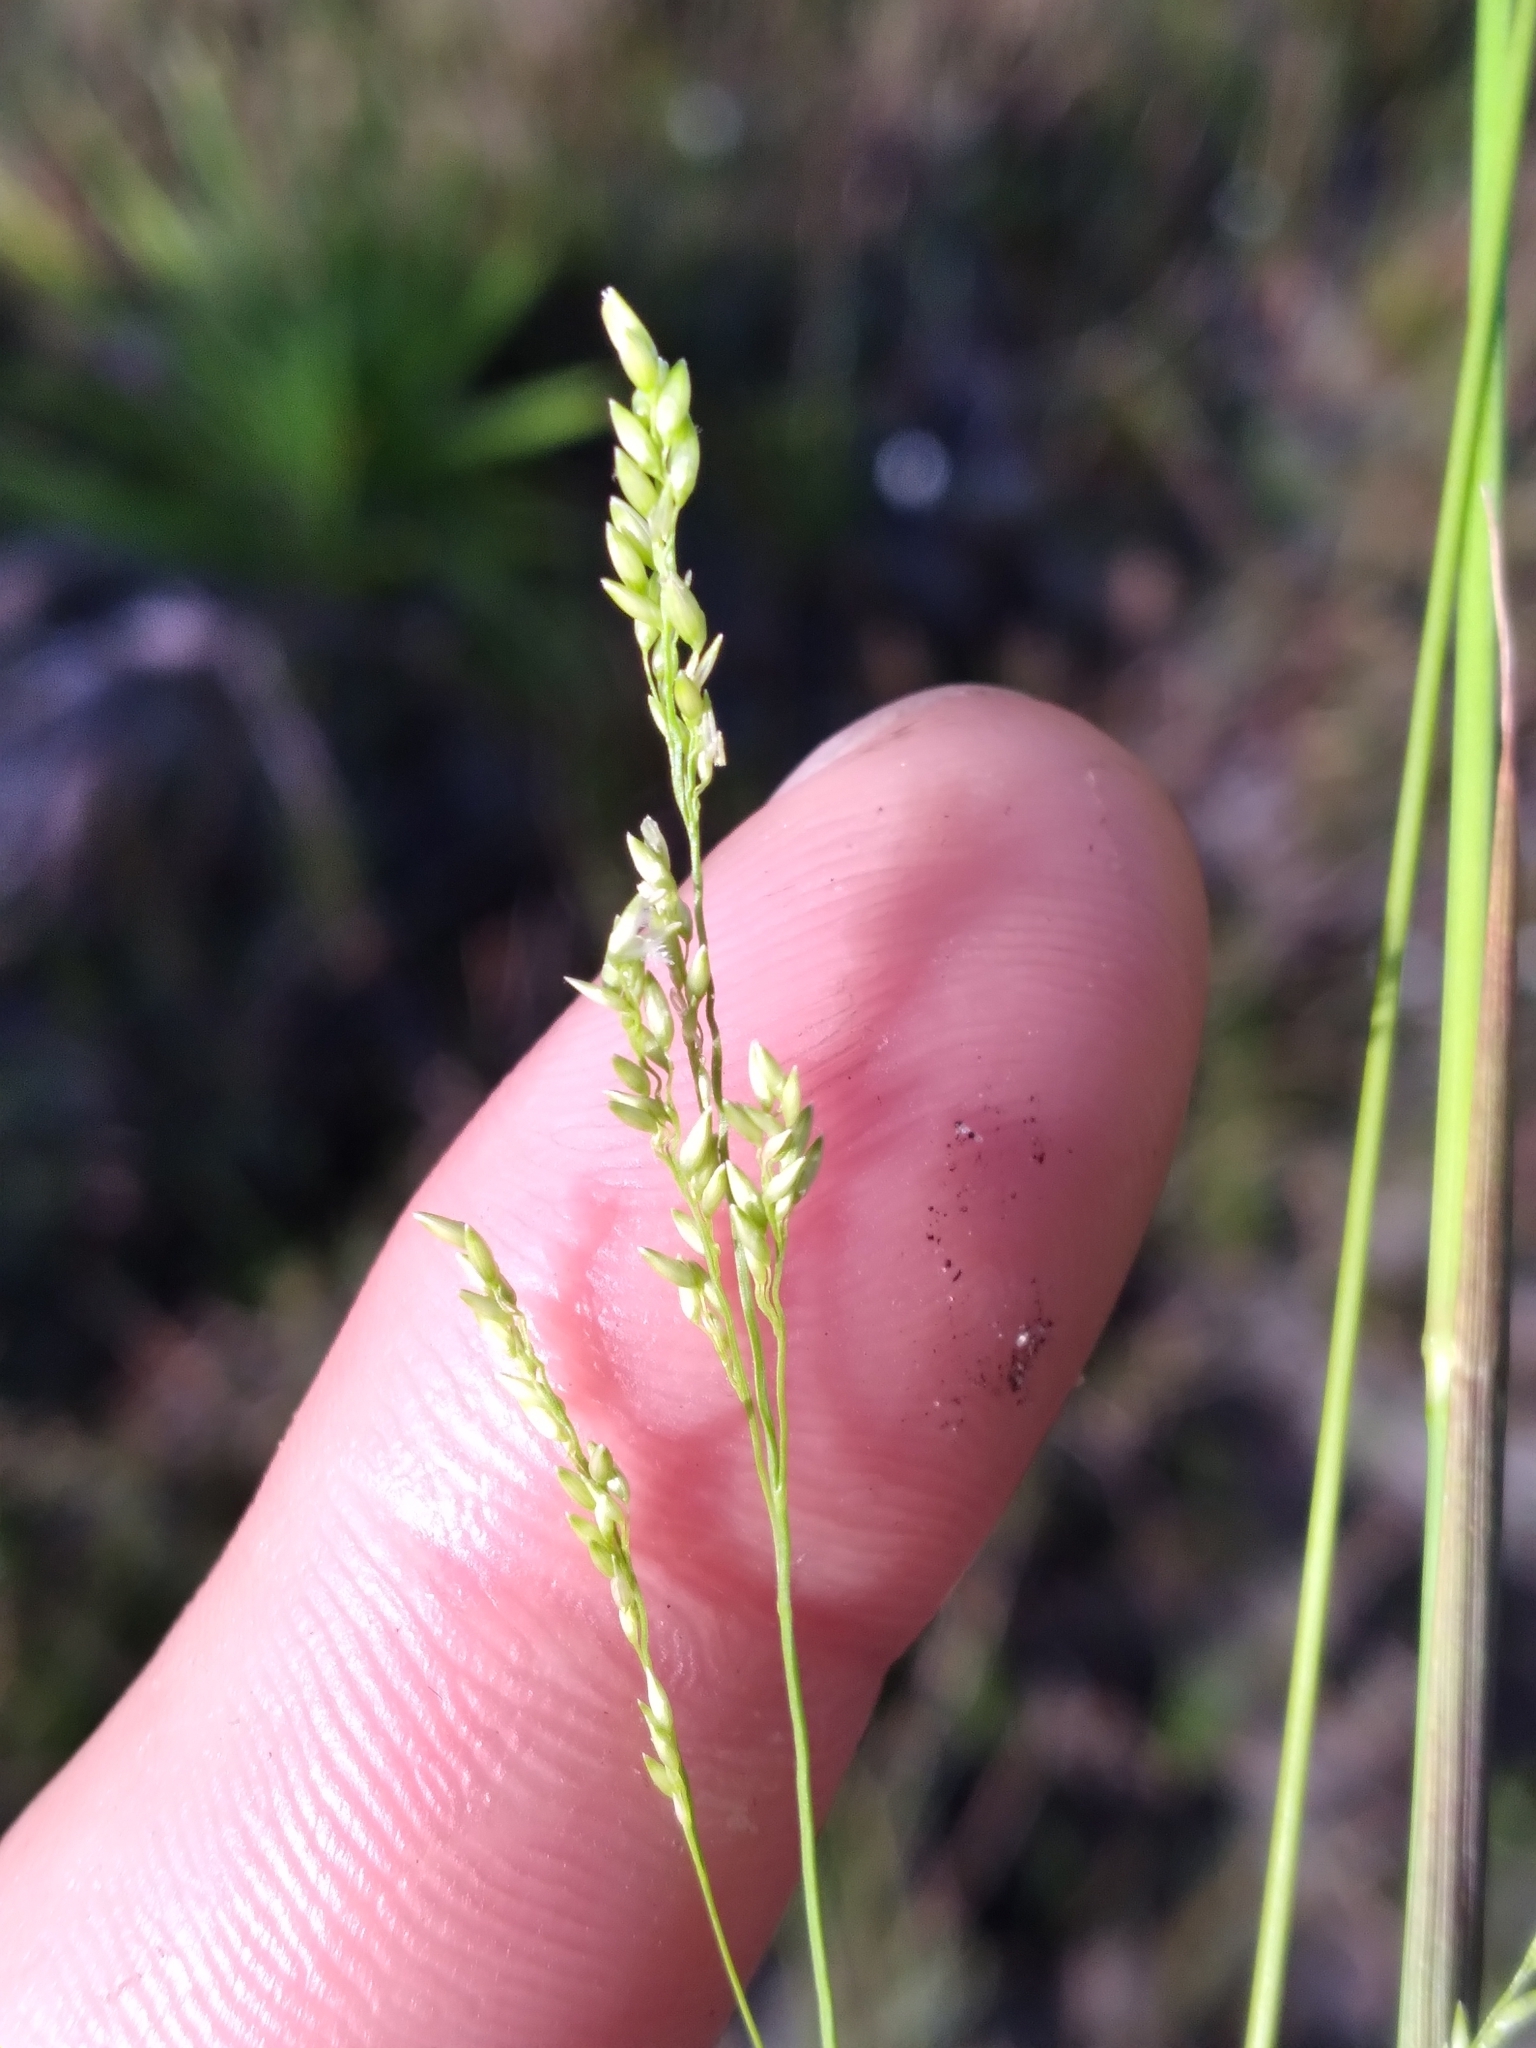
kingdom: Plantae
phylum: Tracheophyta
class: Liliopsida
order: Poales
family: Poaceae
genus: Steinchisma
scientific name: Steinchisma hians
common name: Gaping panic grass
